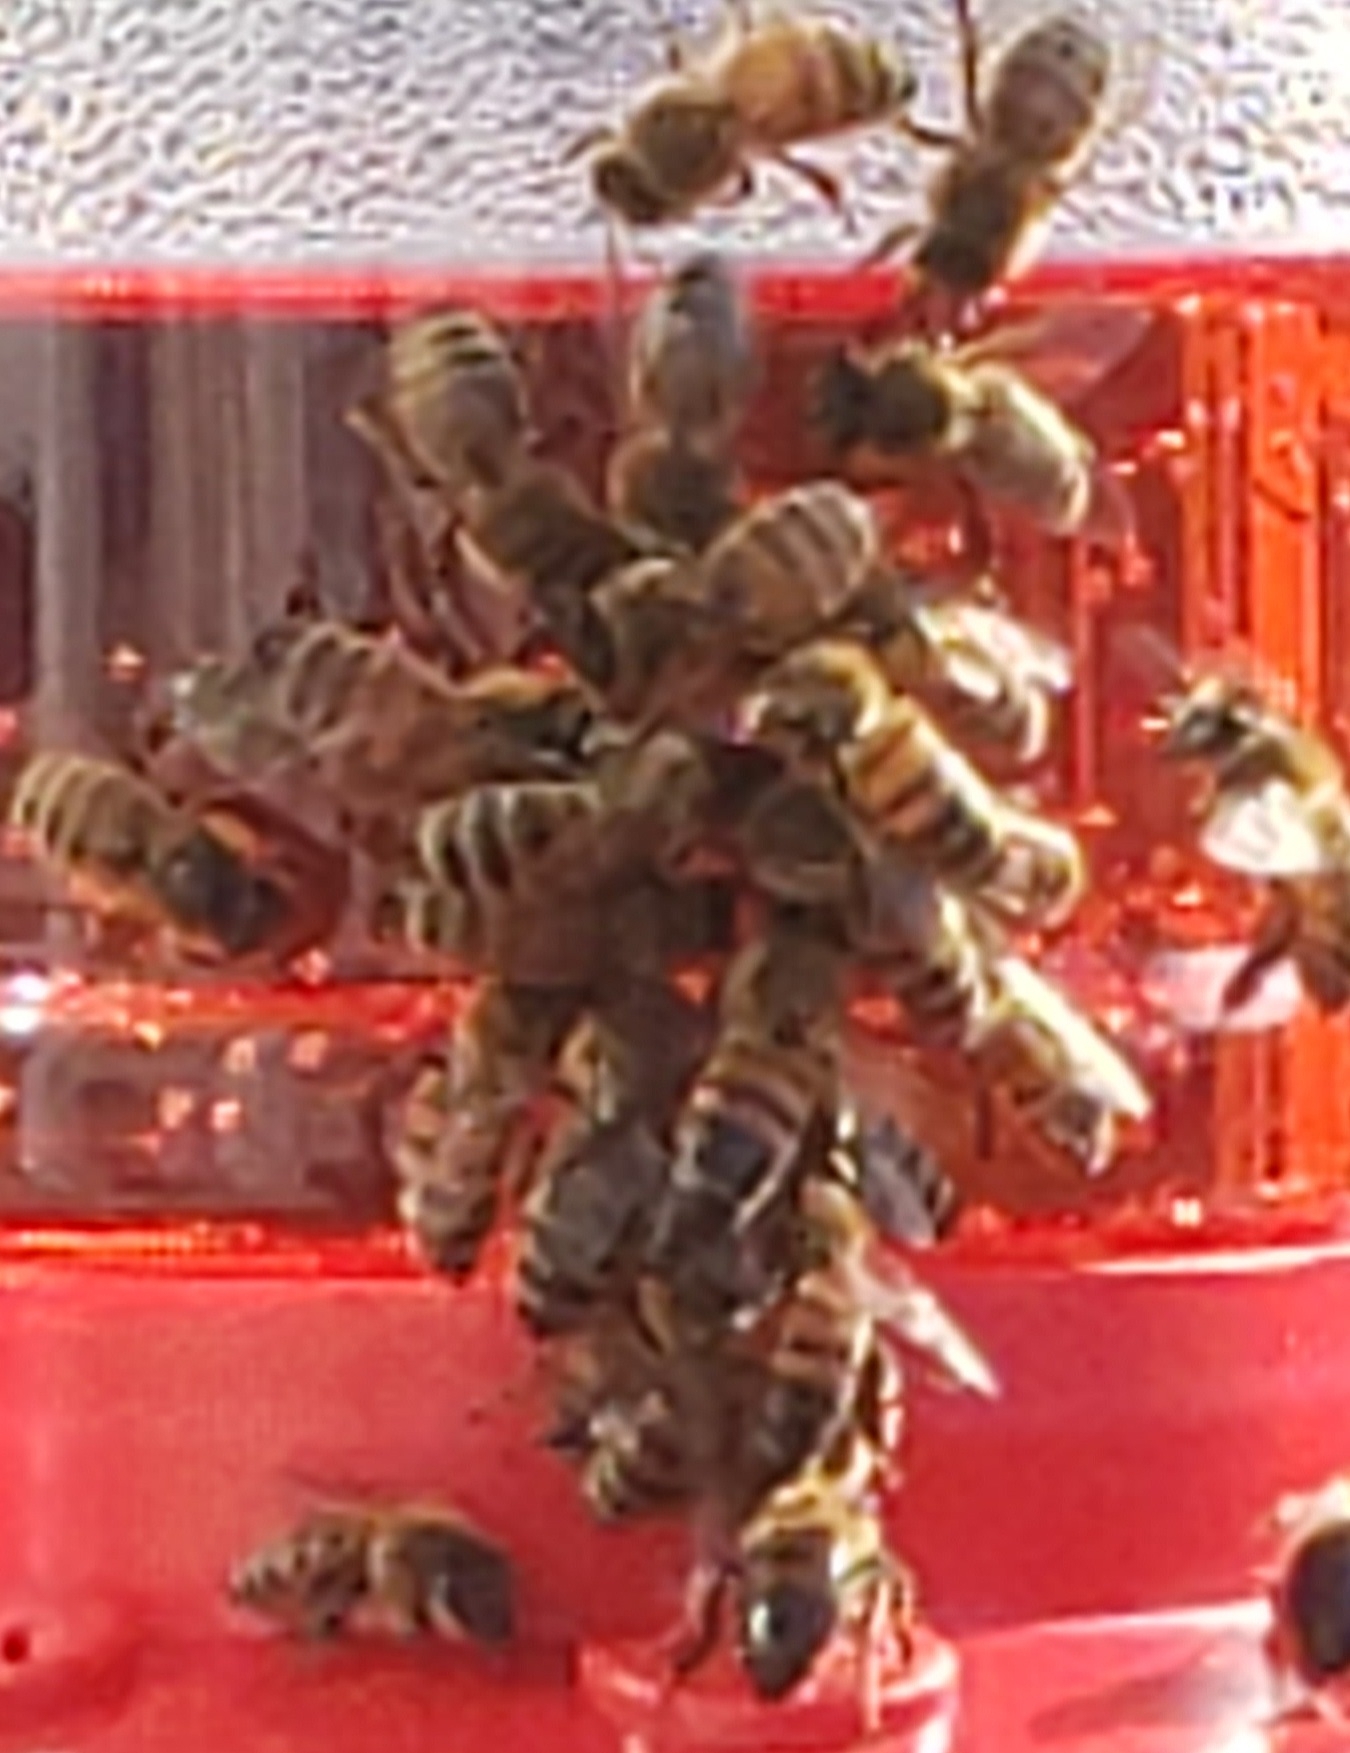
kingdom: Animalia
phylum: Arthropoda
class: Insecta
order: Hymenoptera
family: Apidae
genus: Apis
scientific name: Apis mellifera
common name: Honey bee
